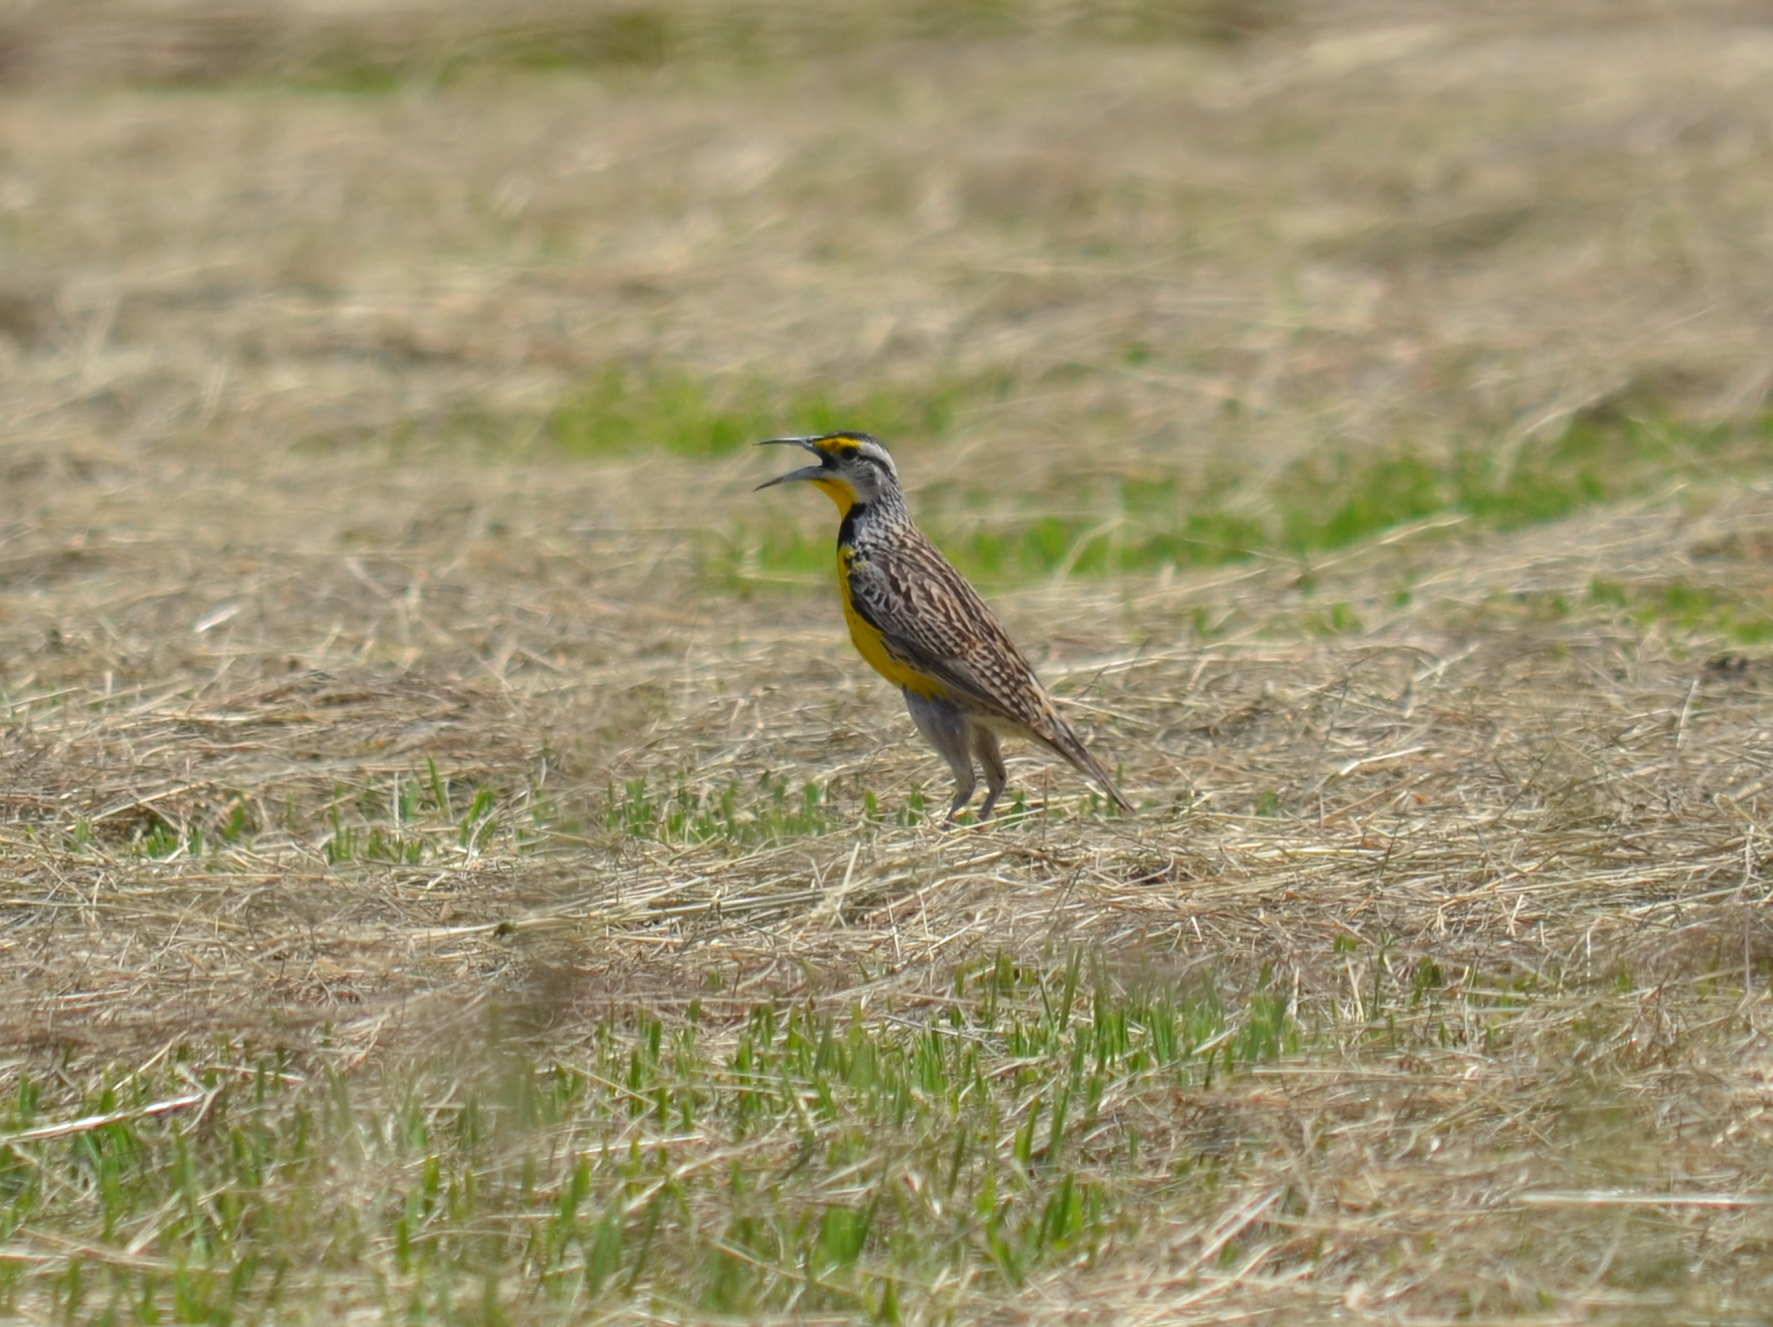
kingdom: Animalia
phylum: Chordata
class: Aves
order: Passeriformes
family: Icteridae
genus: Sturnella
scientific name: Sturnella magna
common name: Eastern meadowlark
